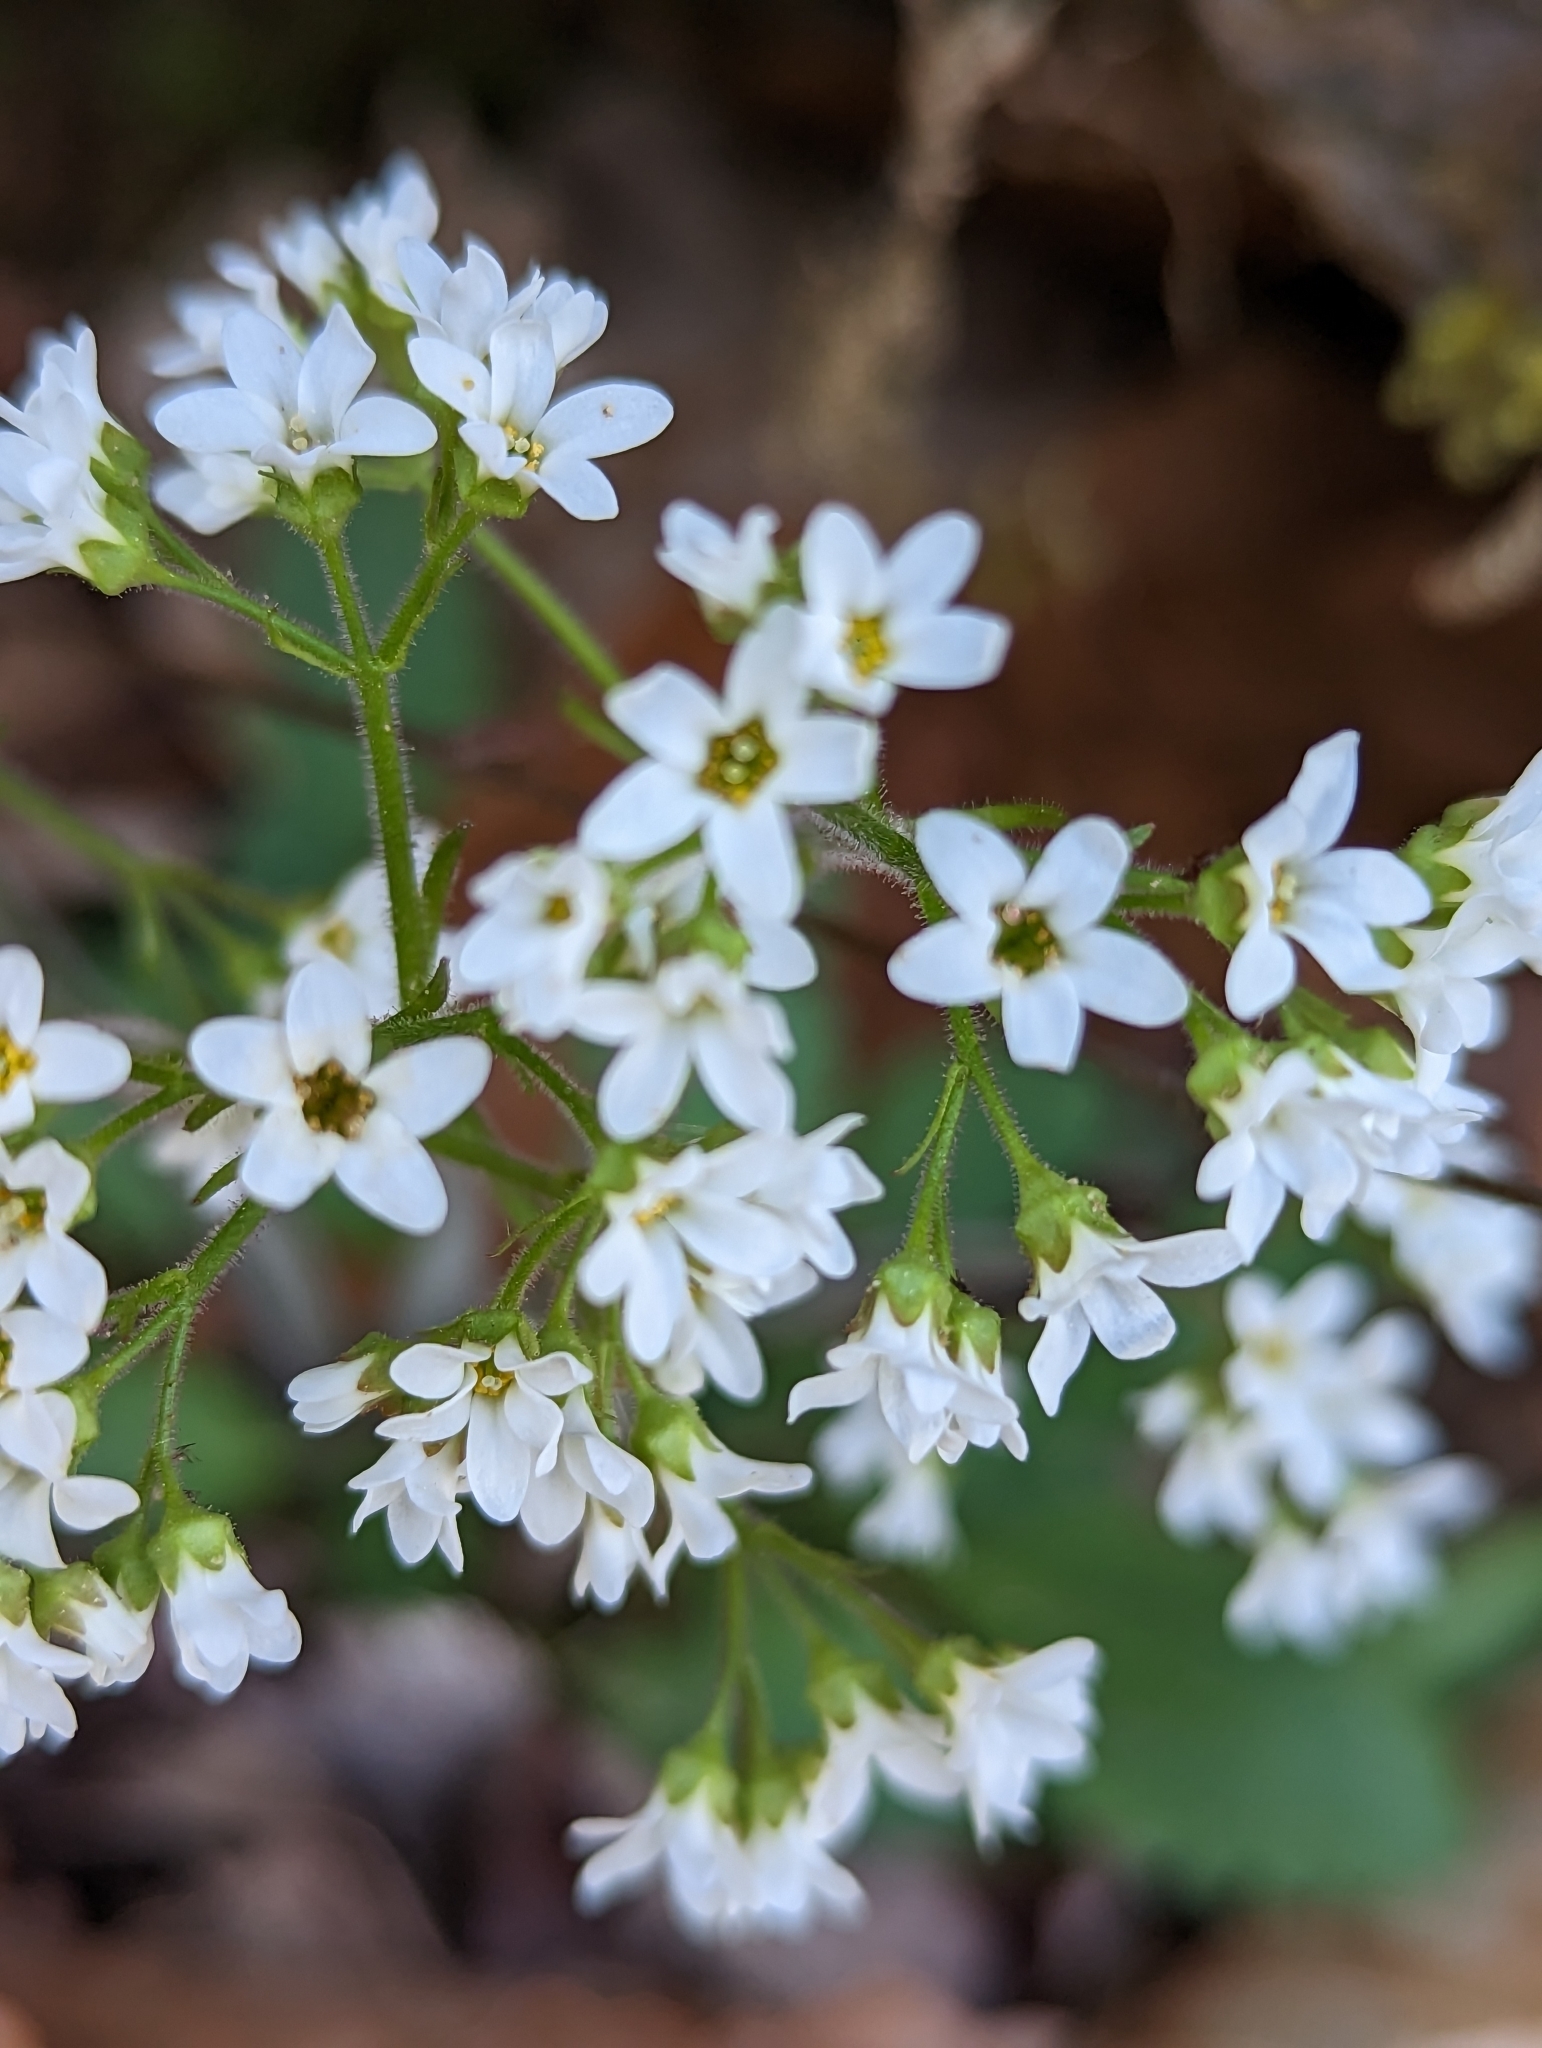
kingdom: Plantae
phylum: Tracheophyta
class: Magnoliopsida
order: Saxifragales
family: Saxifragaceae
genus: Micranthes
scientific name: Micranthes virginiensis
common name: Early saxifrage
